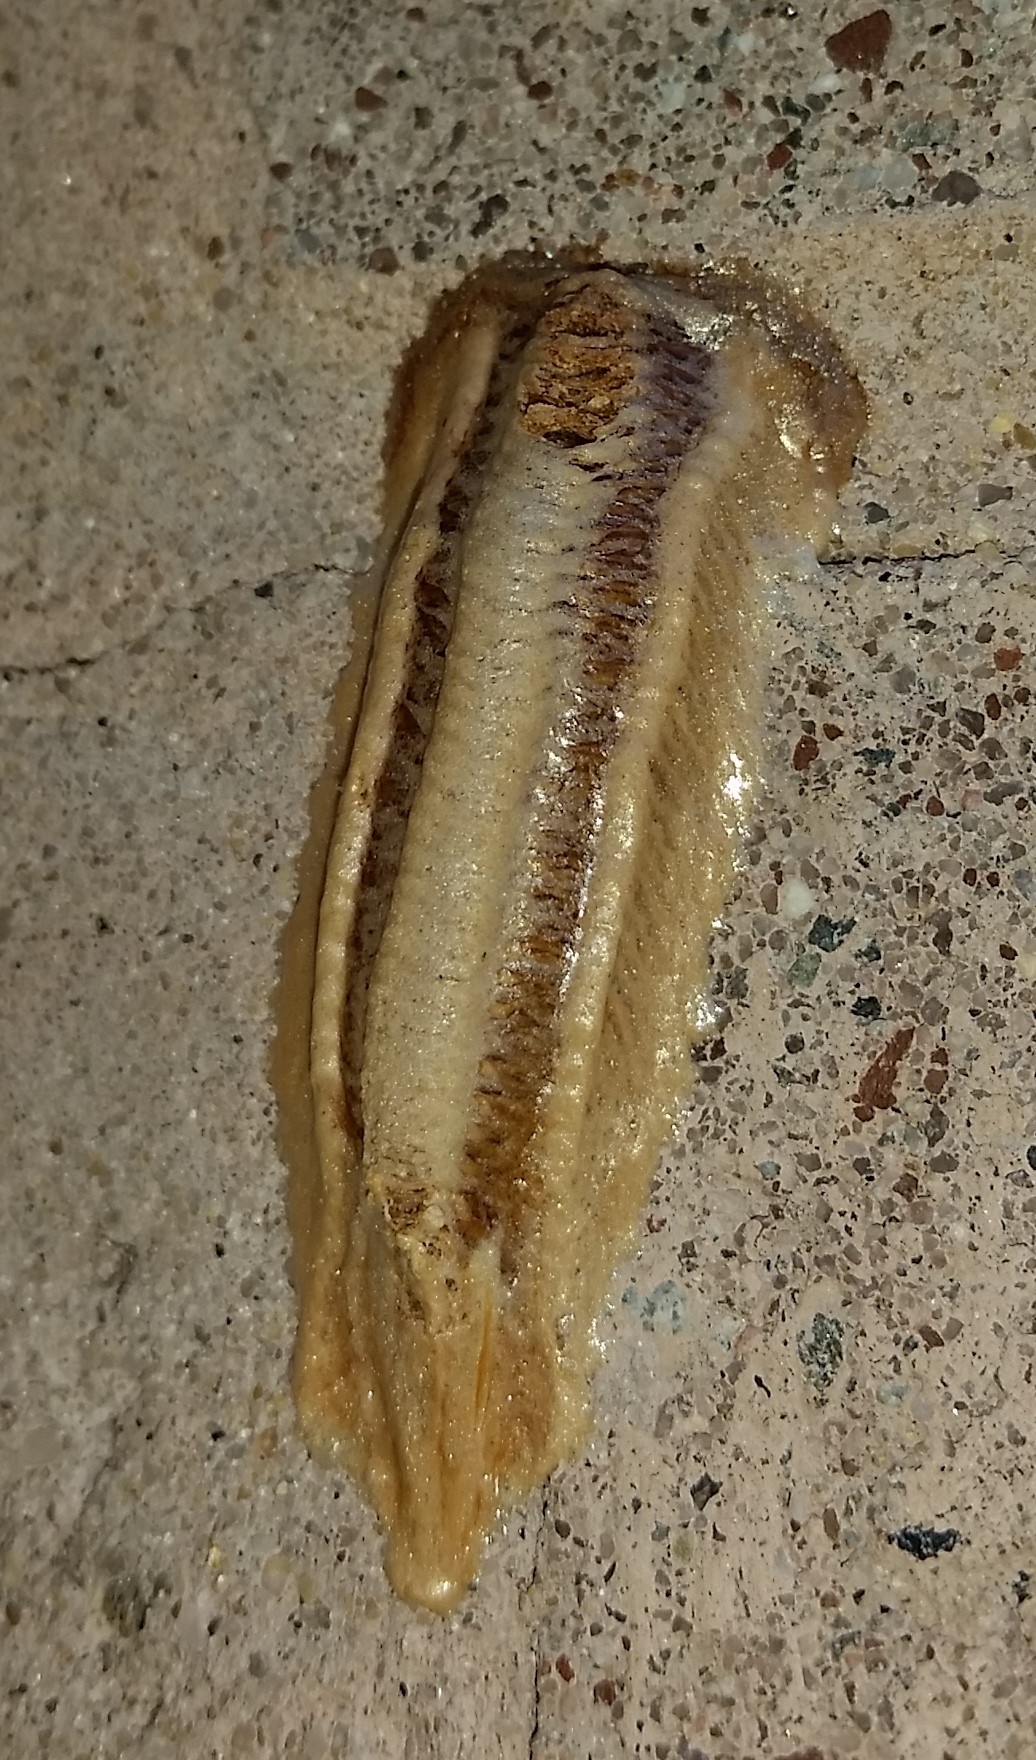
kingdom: Animalia
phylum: Arthropoda
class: Insecta
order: Mantodea
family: Mantidae
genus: Tenodera
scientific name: Tenodera angustipennis
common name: Asian mantis
